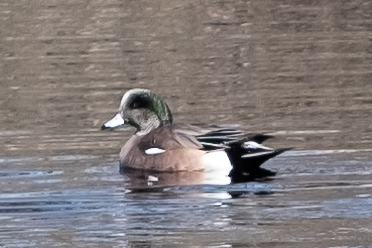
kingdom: Animalia
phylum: Chordata
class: Aves
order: Anseriformes
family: Anatidae
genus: Mareca
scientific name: Mareca americana
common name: American wigeon
